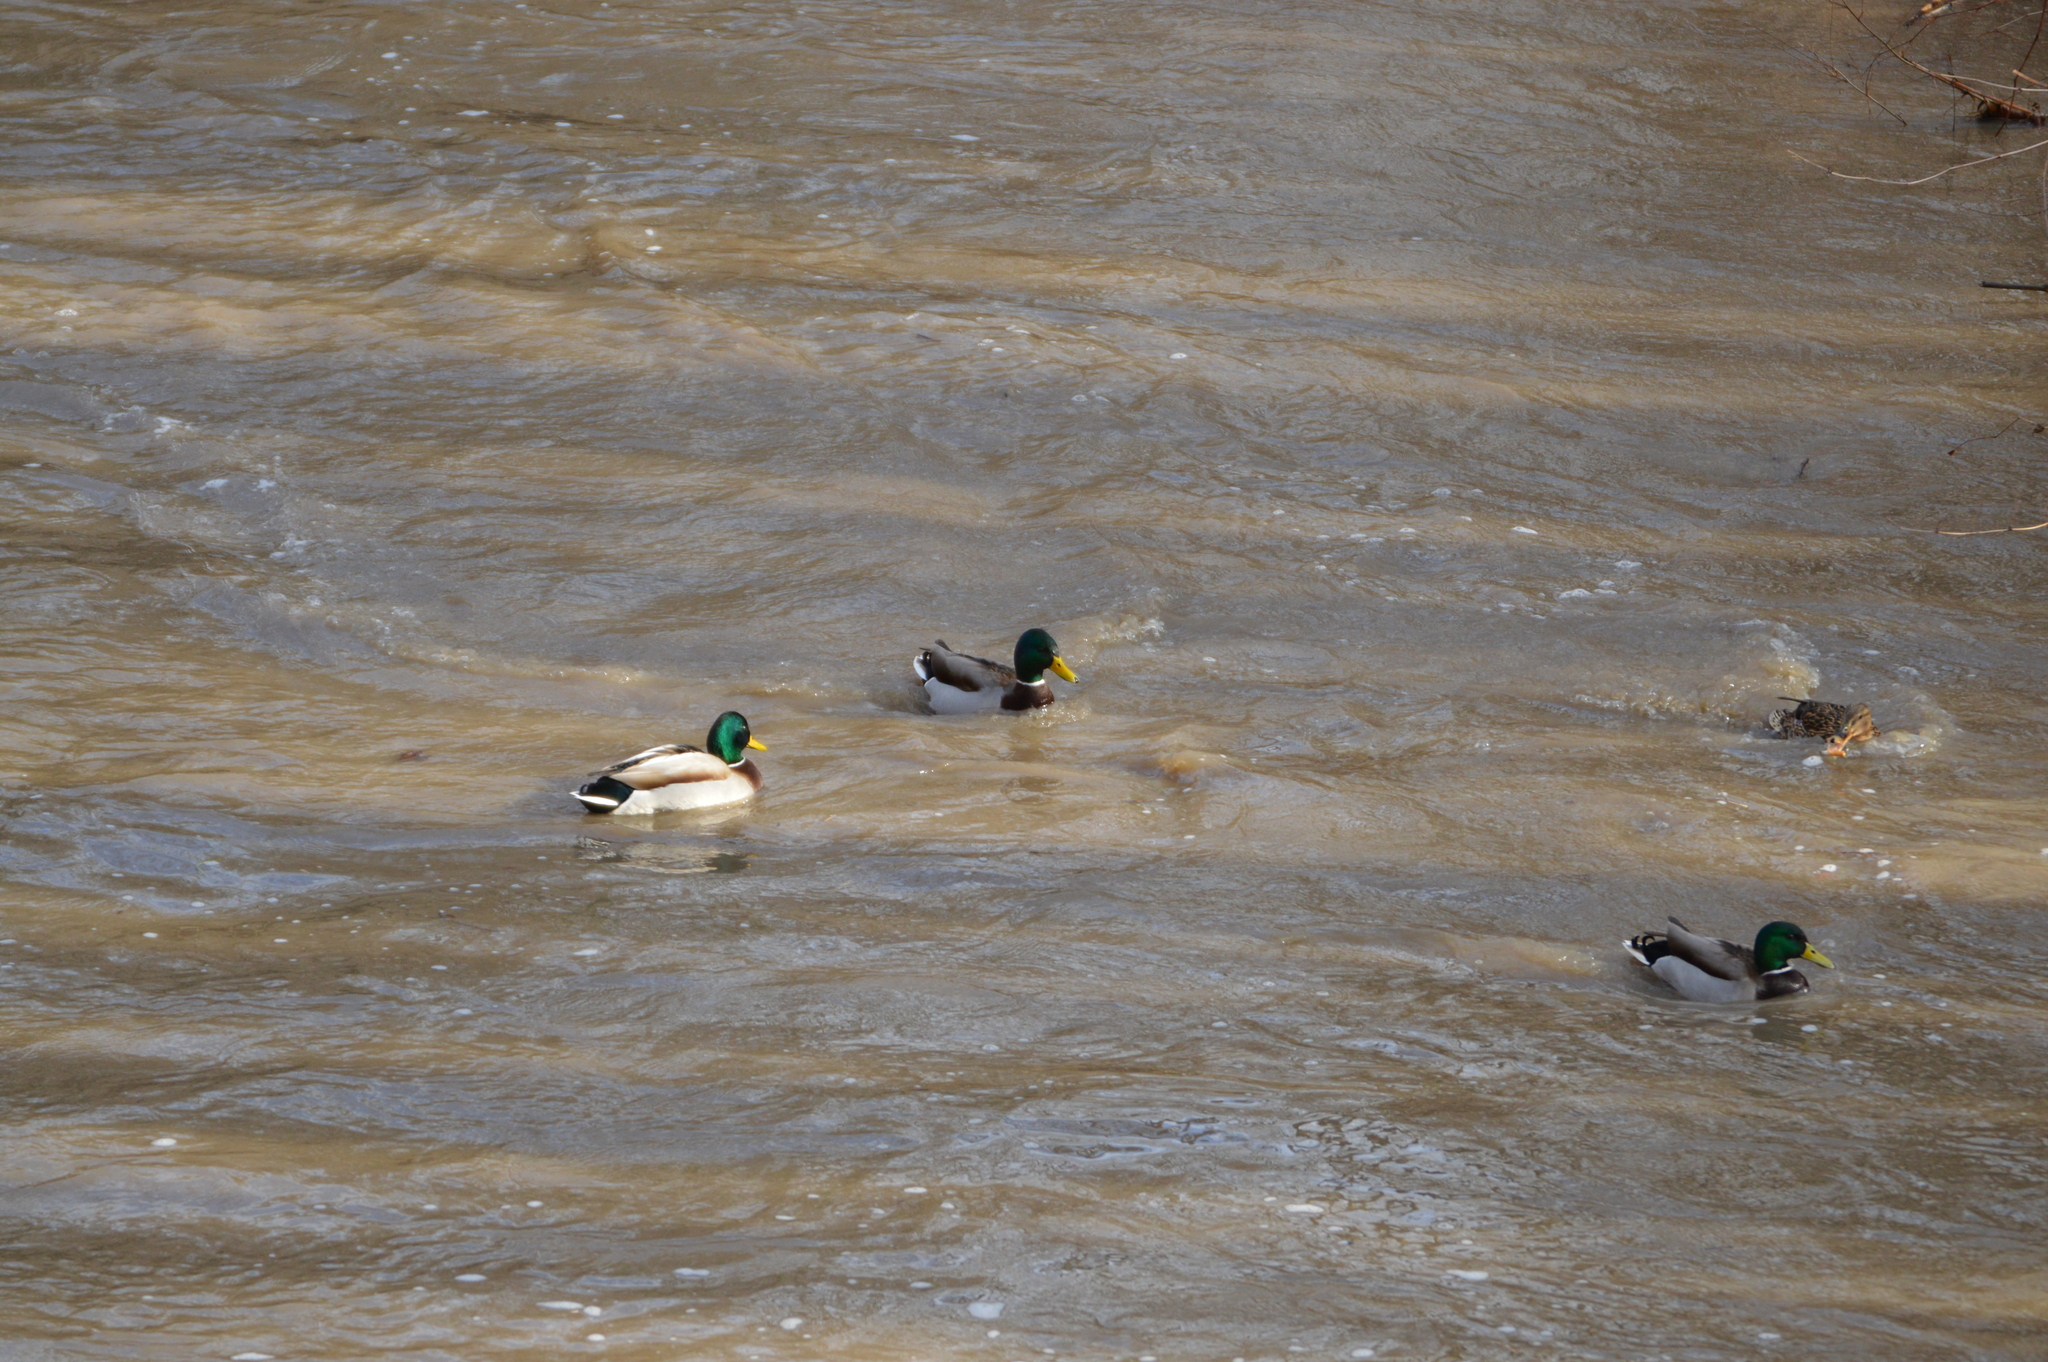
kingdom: Animalia
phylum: Chordata
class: Aves
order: Anseriformes
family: Anatidae
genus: Anas
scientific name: Anas platyrhynchos
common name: Mallard
